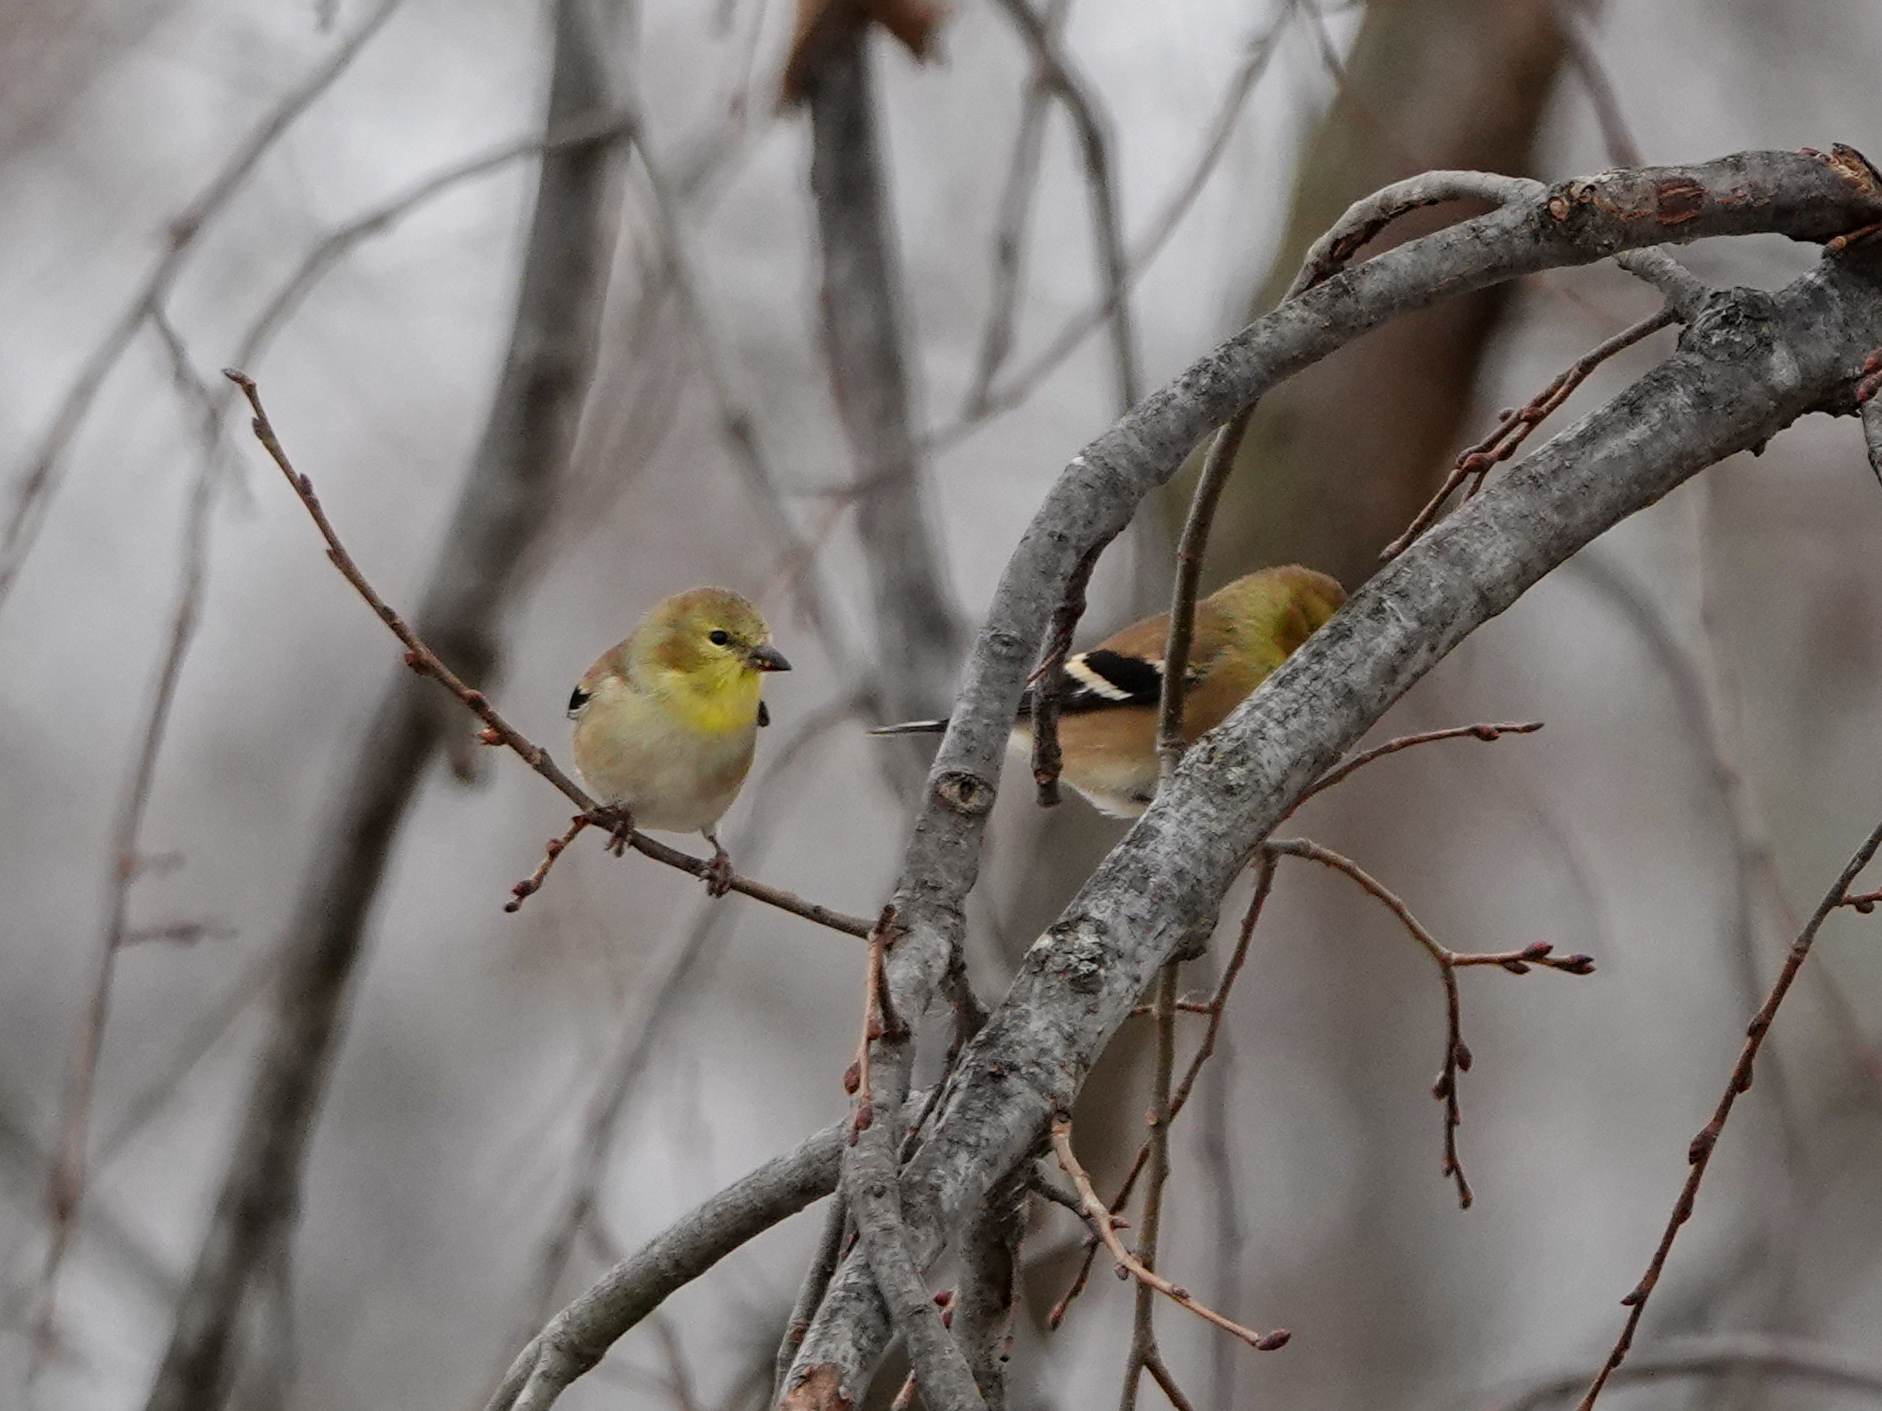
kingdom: Animalia
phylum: Chordata
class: Aves
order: Passeriformes
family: Fringillidae
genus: Spinus
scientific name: Spinus tristis
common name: American goldfinch
